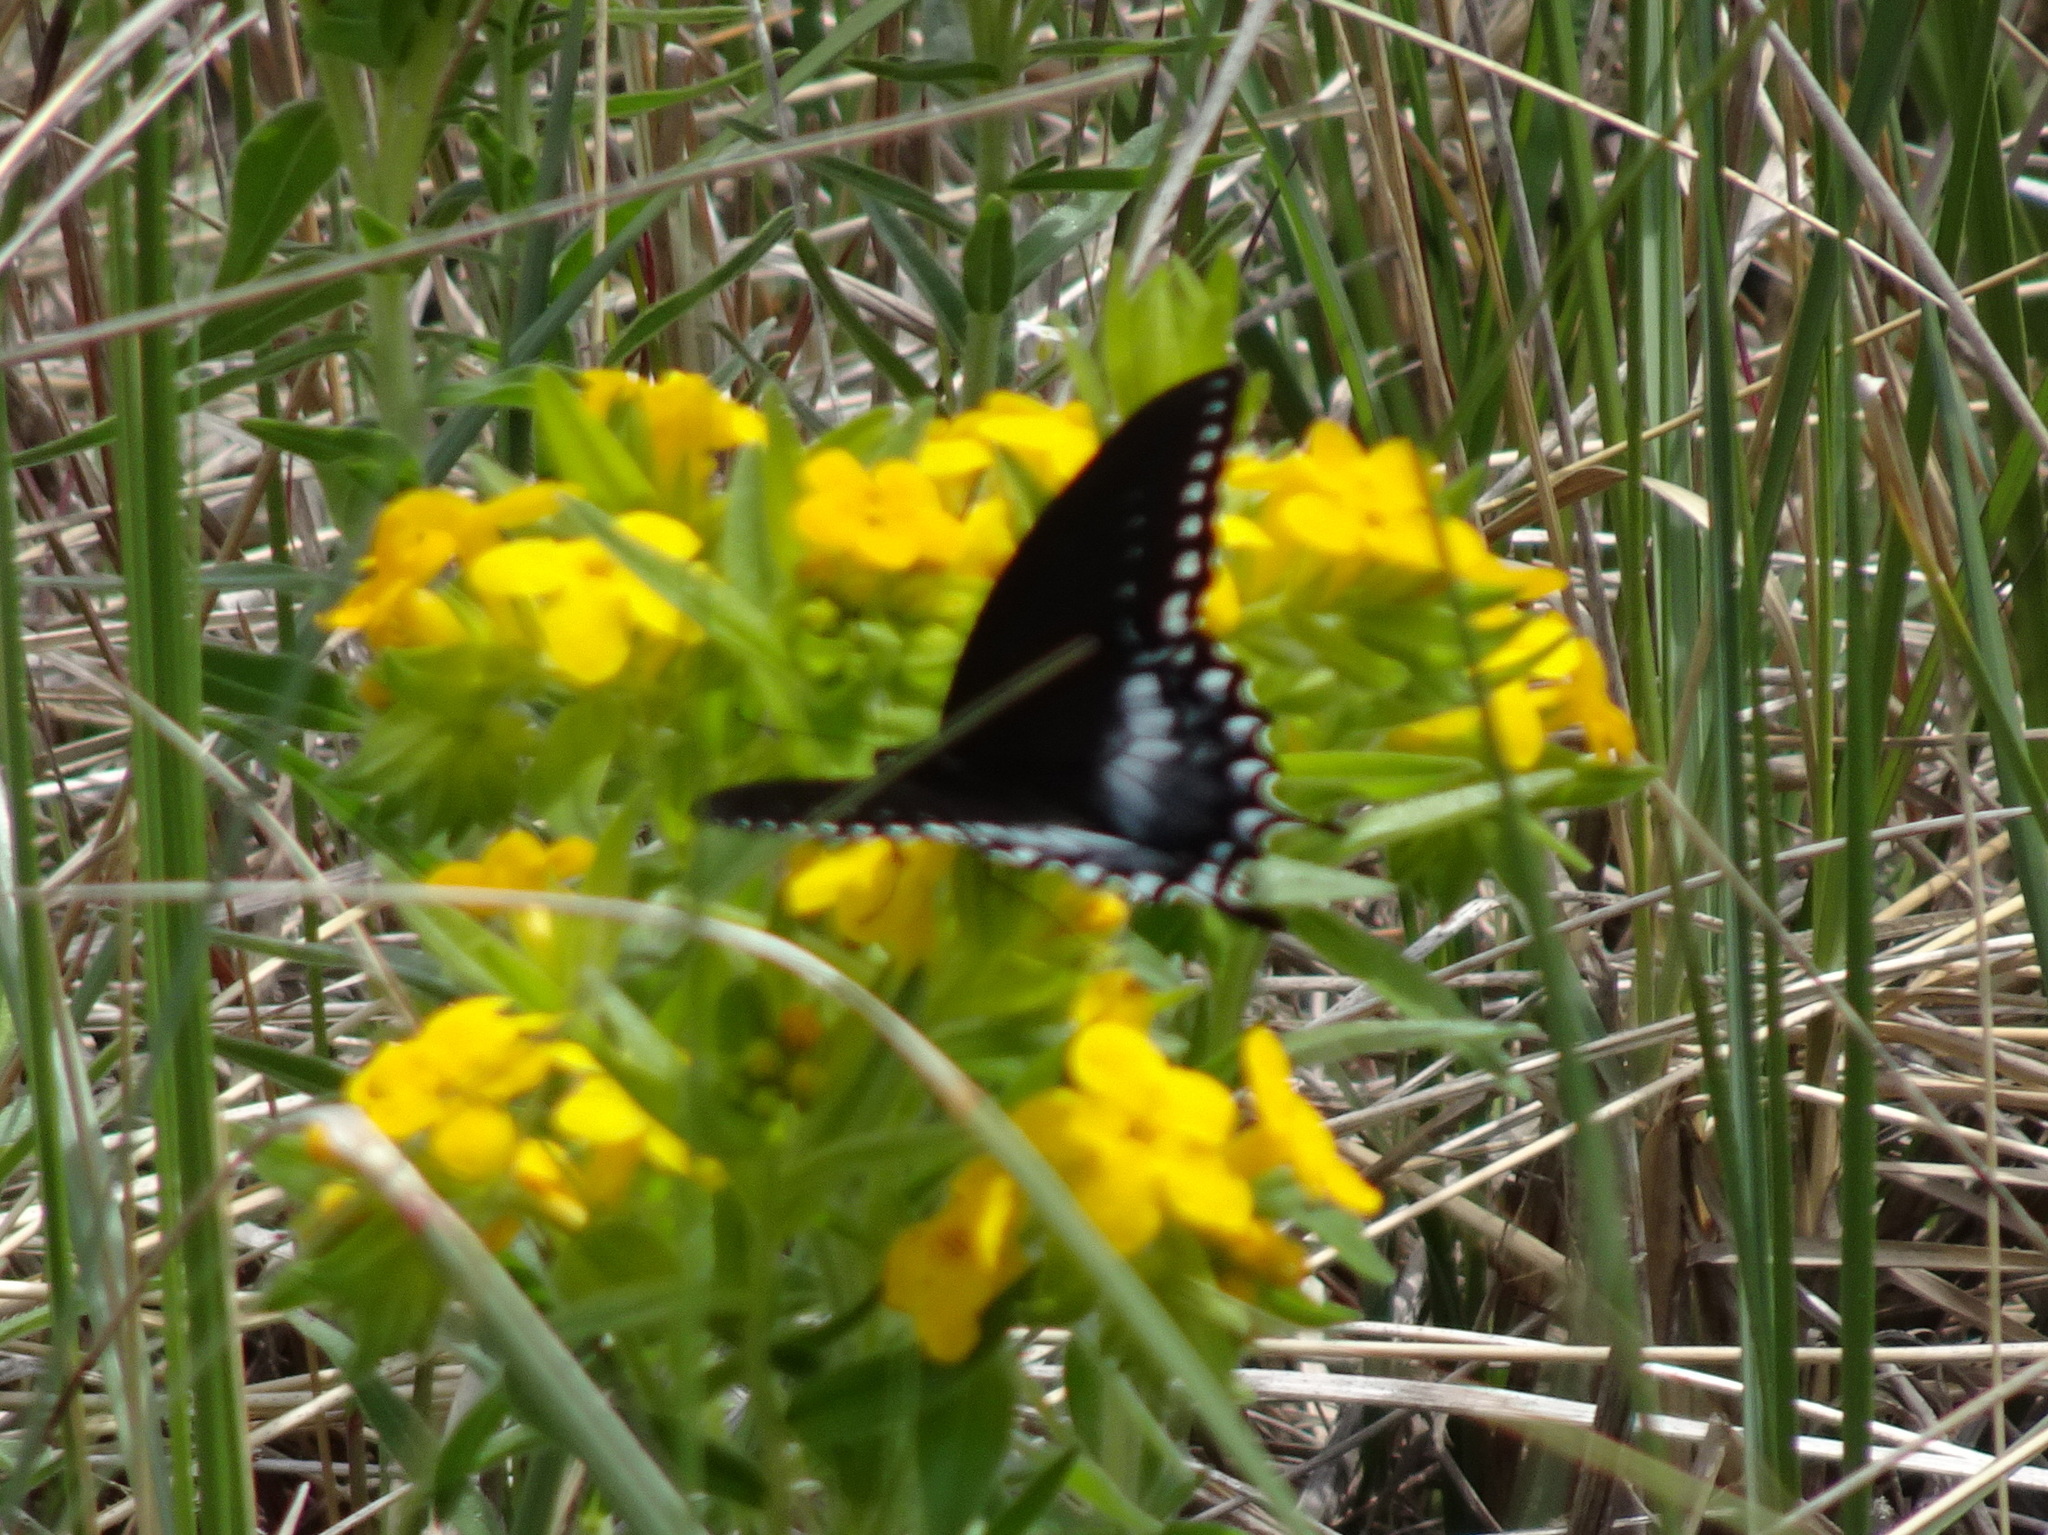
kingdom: Animalia
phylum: Arthropoda
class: Insecta
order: Lepidoptera
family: Papilionidae
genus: Papilio
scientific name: Papilio troilus
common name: Spicebush swallowtail
